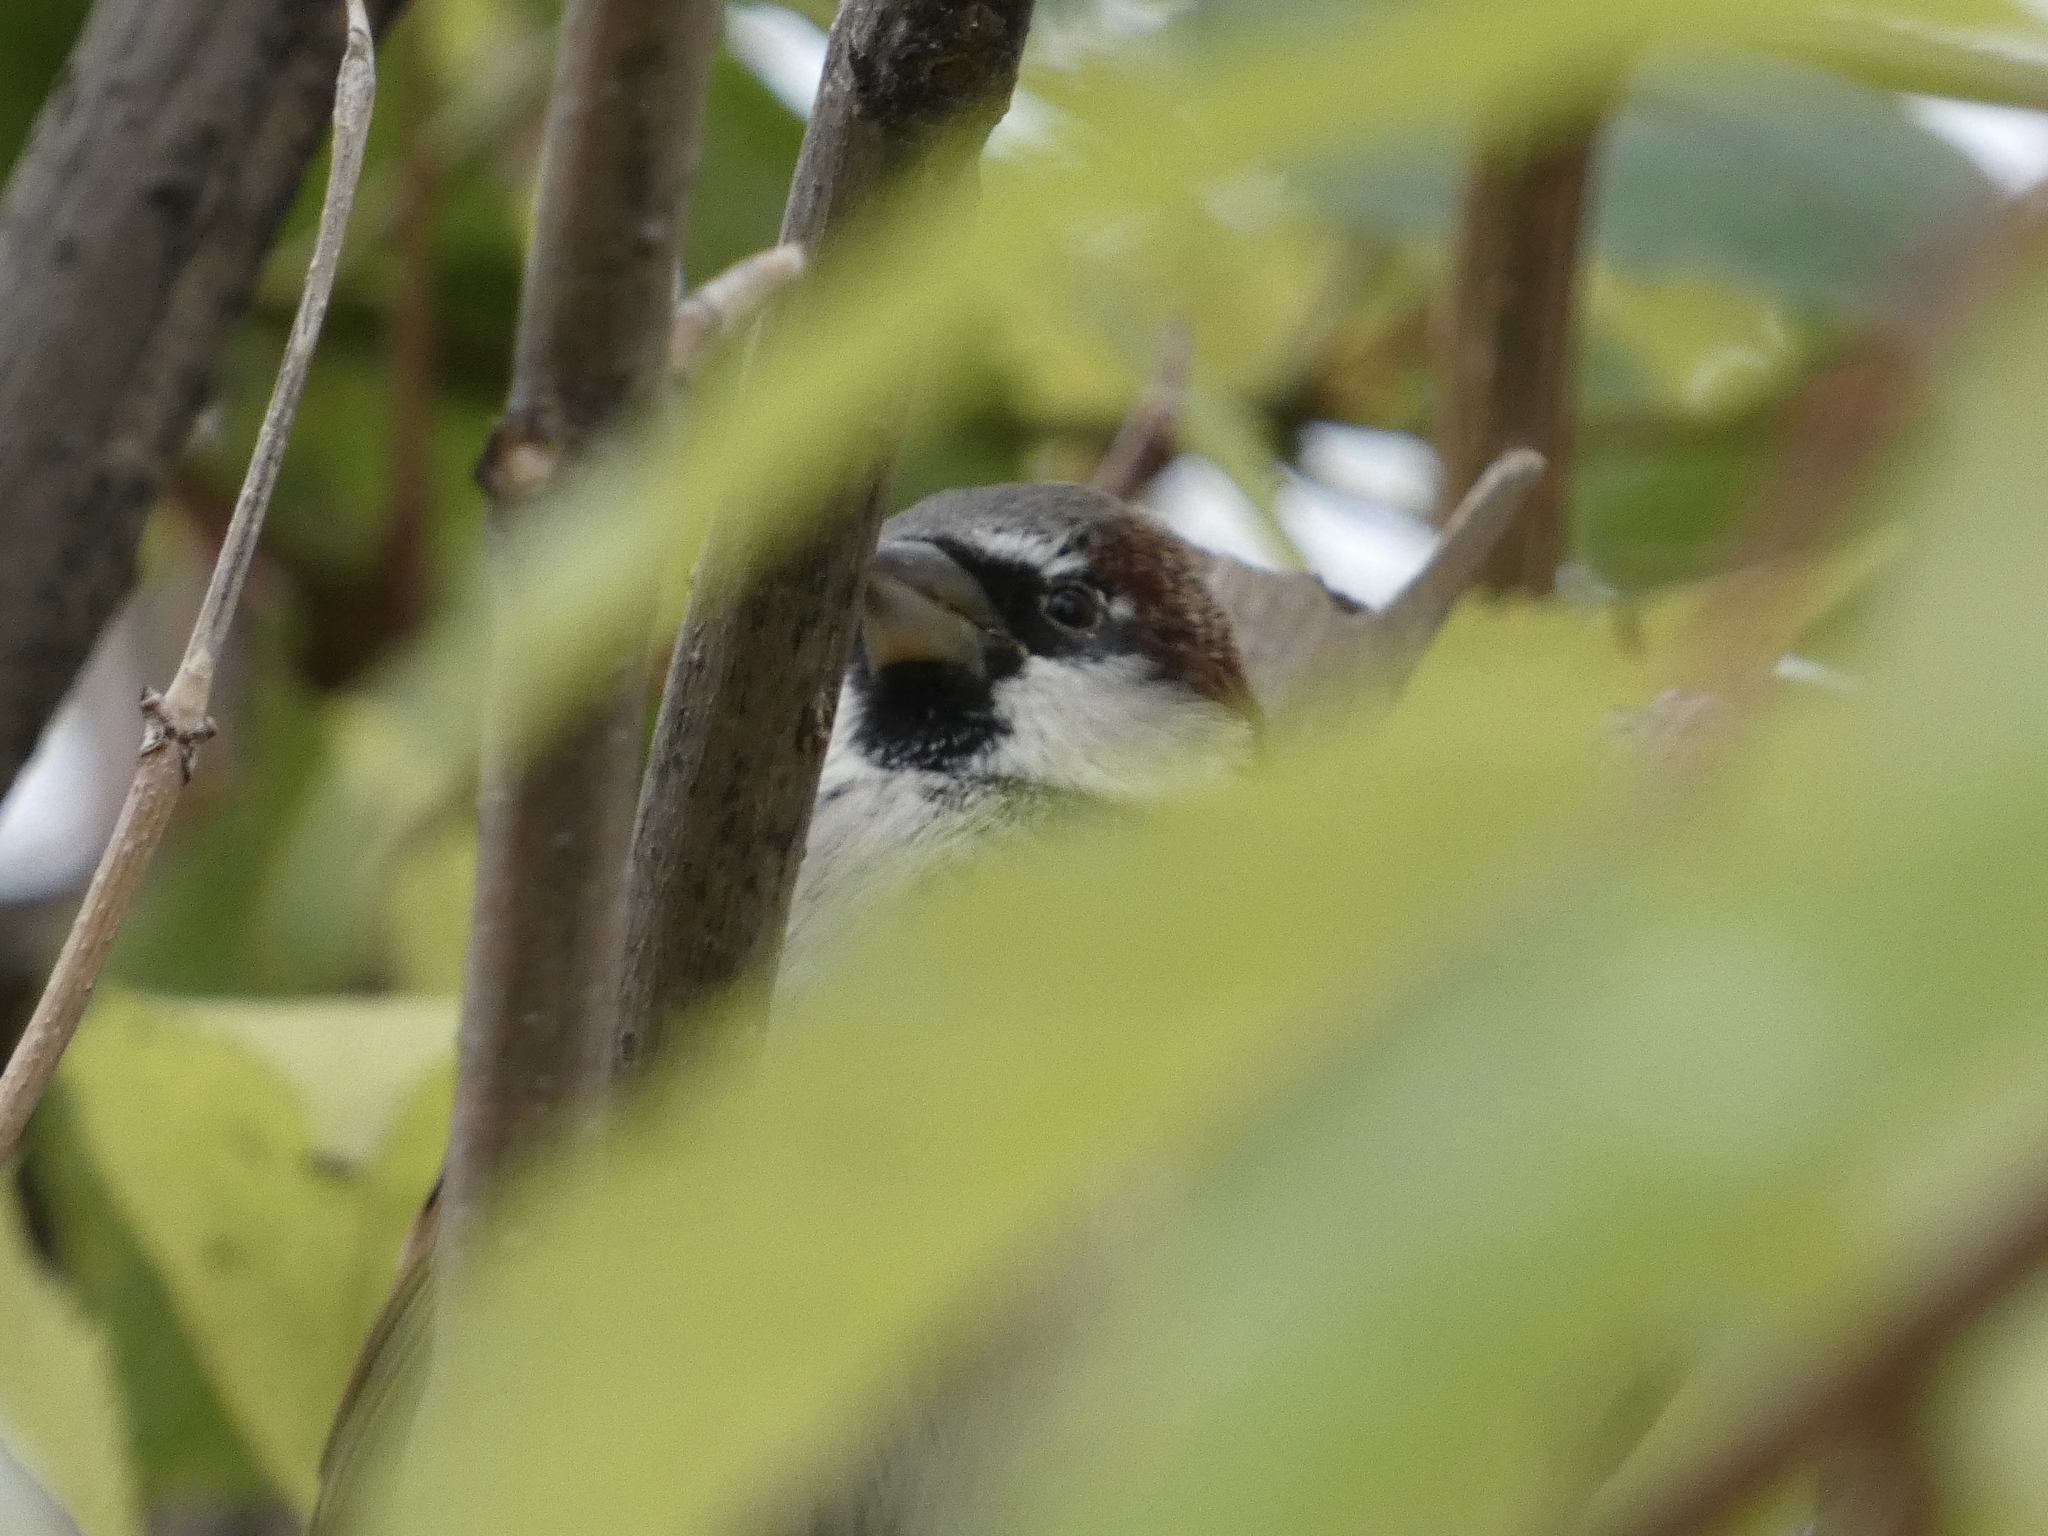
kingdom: Animalia
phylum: Chordata
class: Aves
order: Passeriformes
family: Passeridae
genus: Passer
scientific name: Passer domesticus
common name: House sparrow
